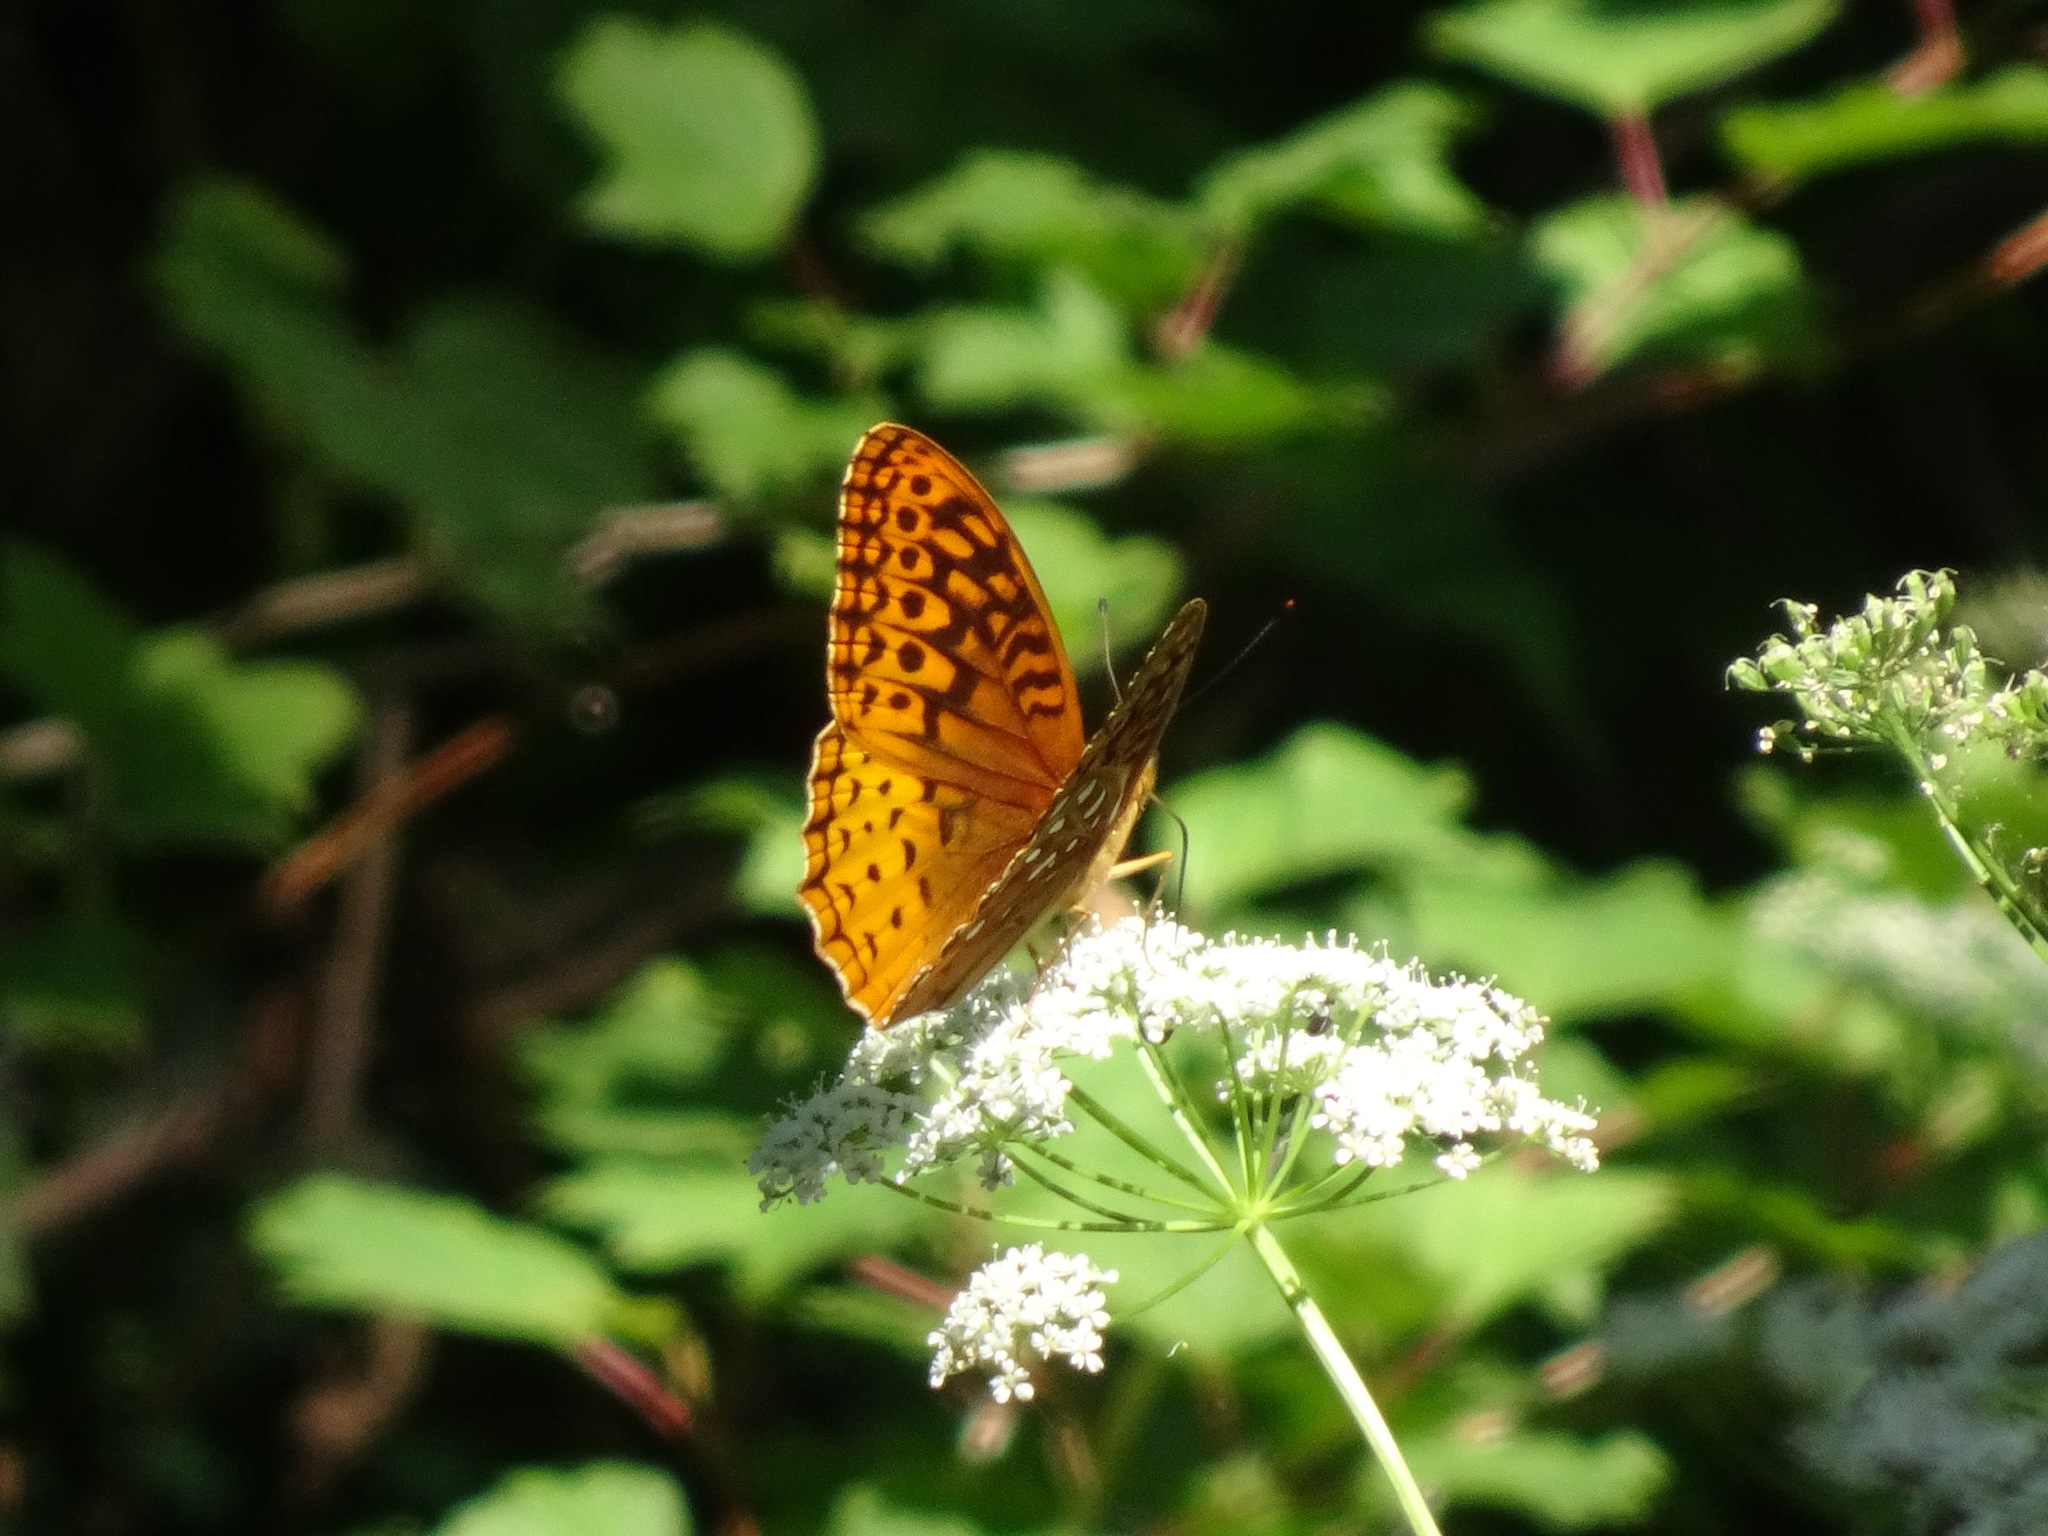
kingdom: Animalia
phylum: Arthropoda
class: Insecta
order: Lepidoptera
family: Nymphalidae
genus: Speyeria
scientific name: Speyeria cybele
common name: Great spangled fritillary
